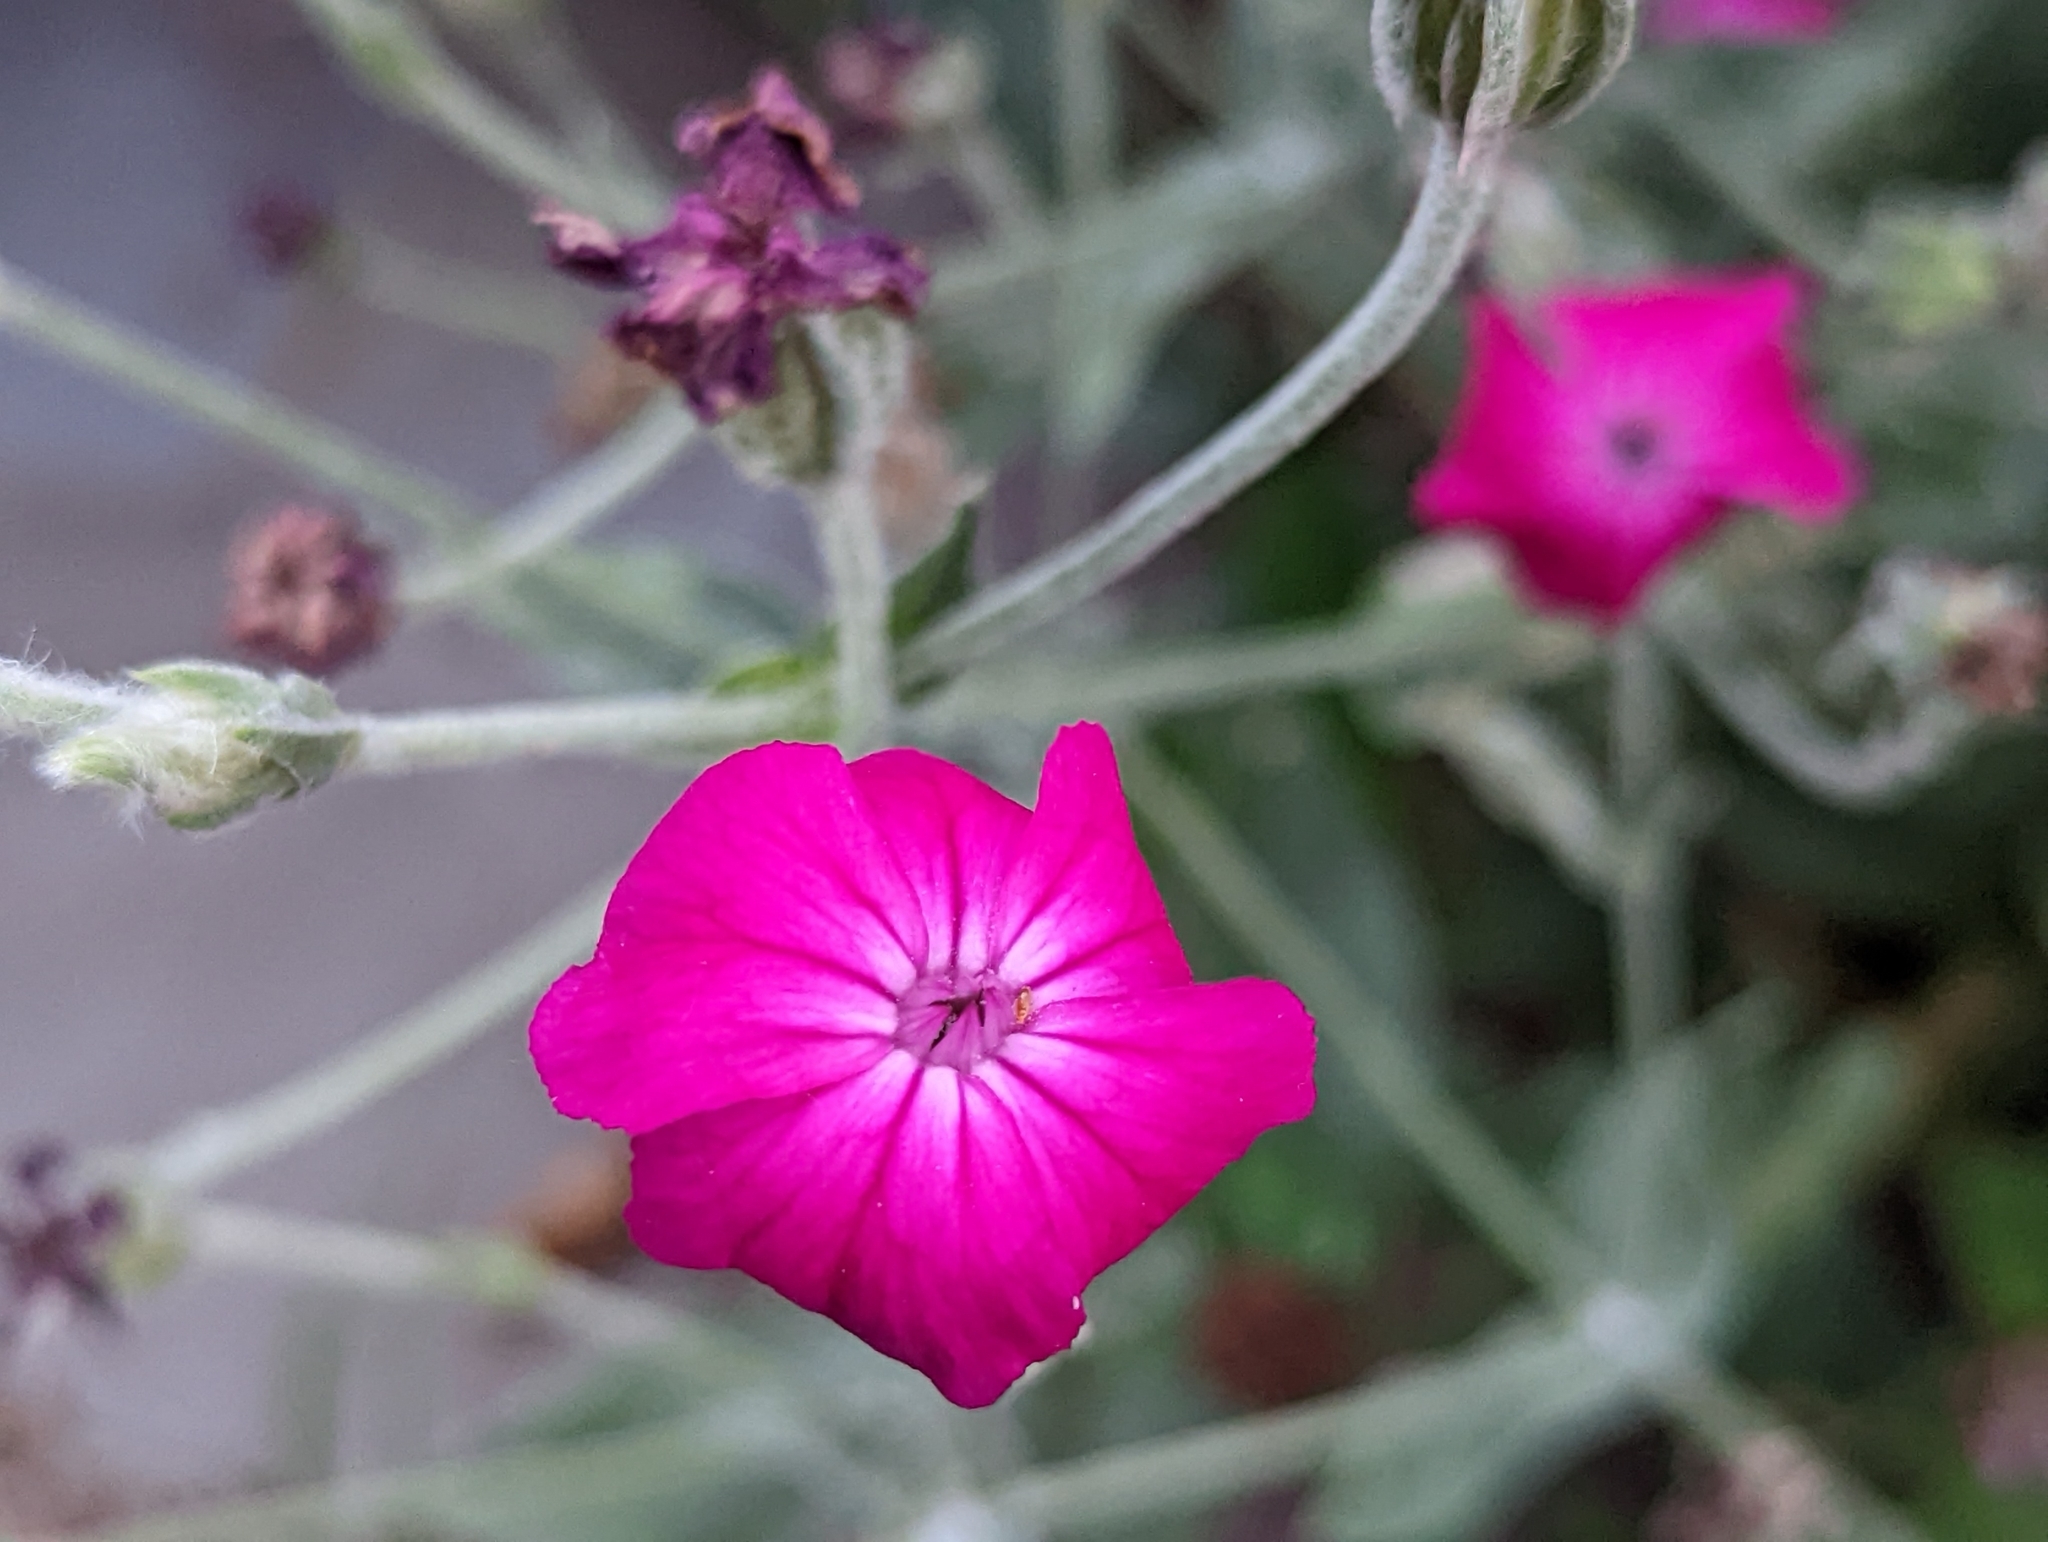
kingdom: Plantae
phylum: Tracheophyta
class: Magnoliopsida
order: Caryophyllales
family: Caryophyllaceae
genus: Silene
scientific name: Silene coronaria
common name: Rose campion
